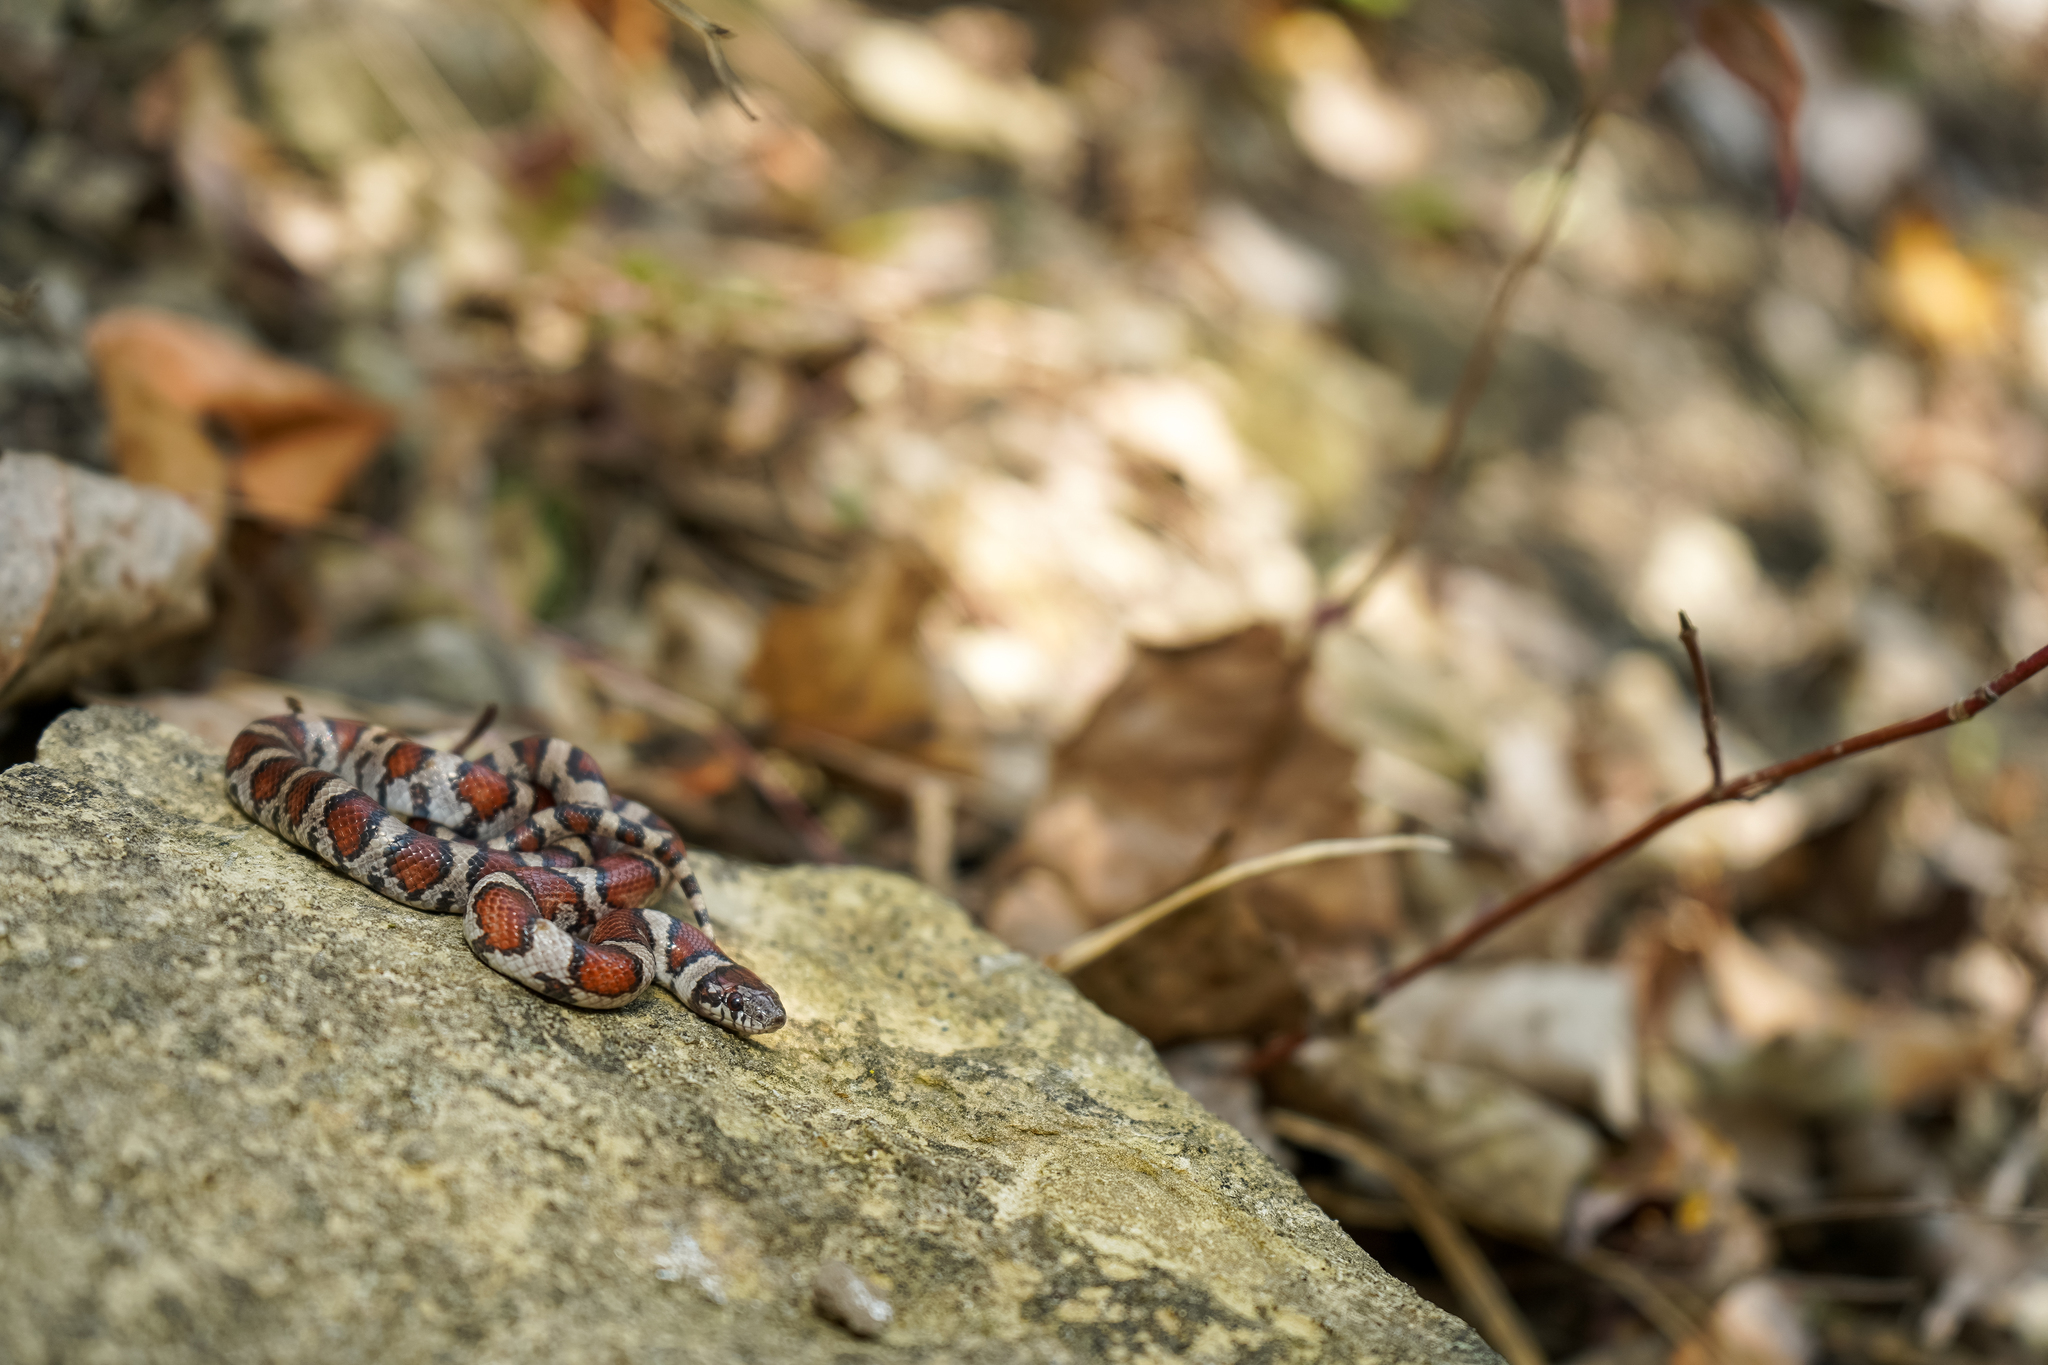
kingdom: Animalia
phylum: Chordata
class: Squamata
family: Colubridae
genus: Lampropeltis
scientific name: Lampropeltis triangulum
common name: Eastern milksnake
